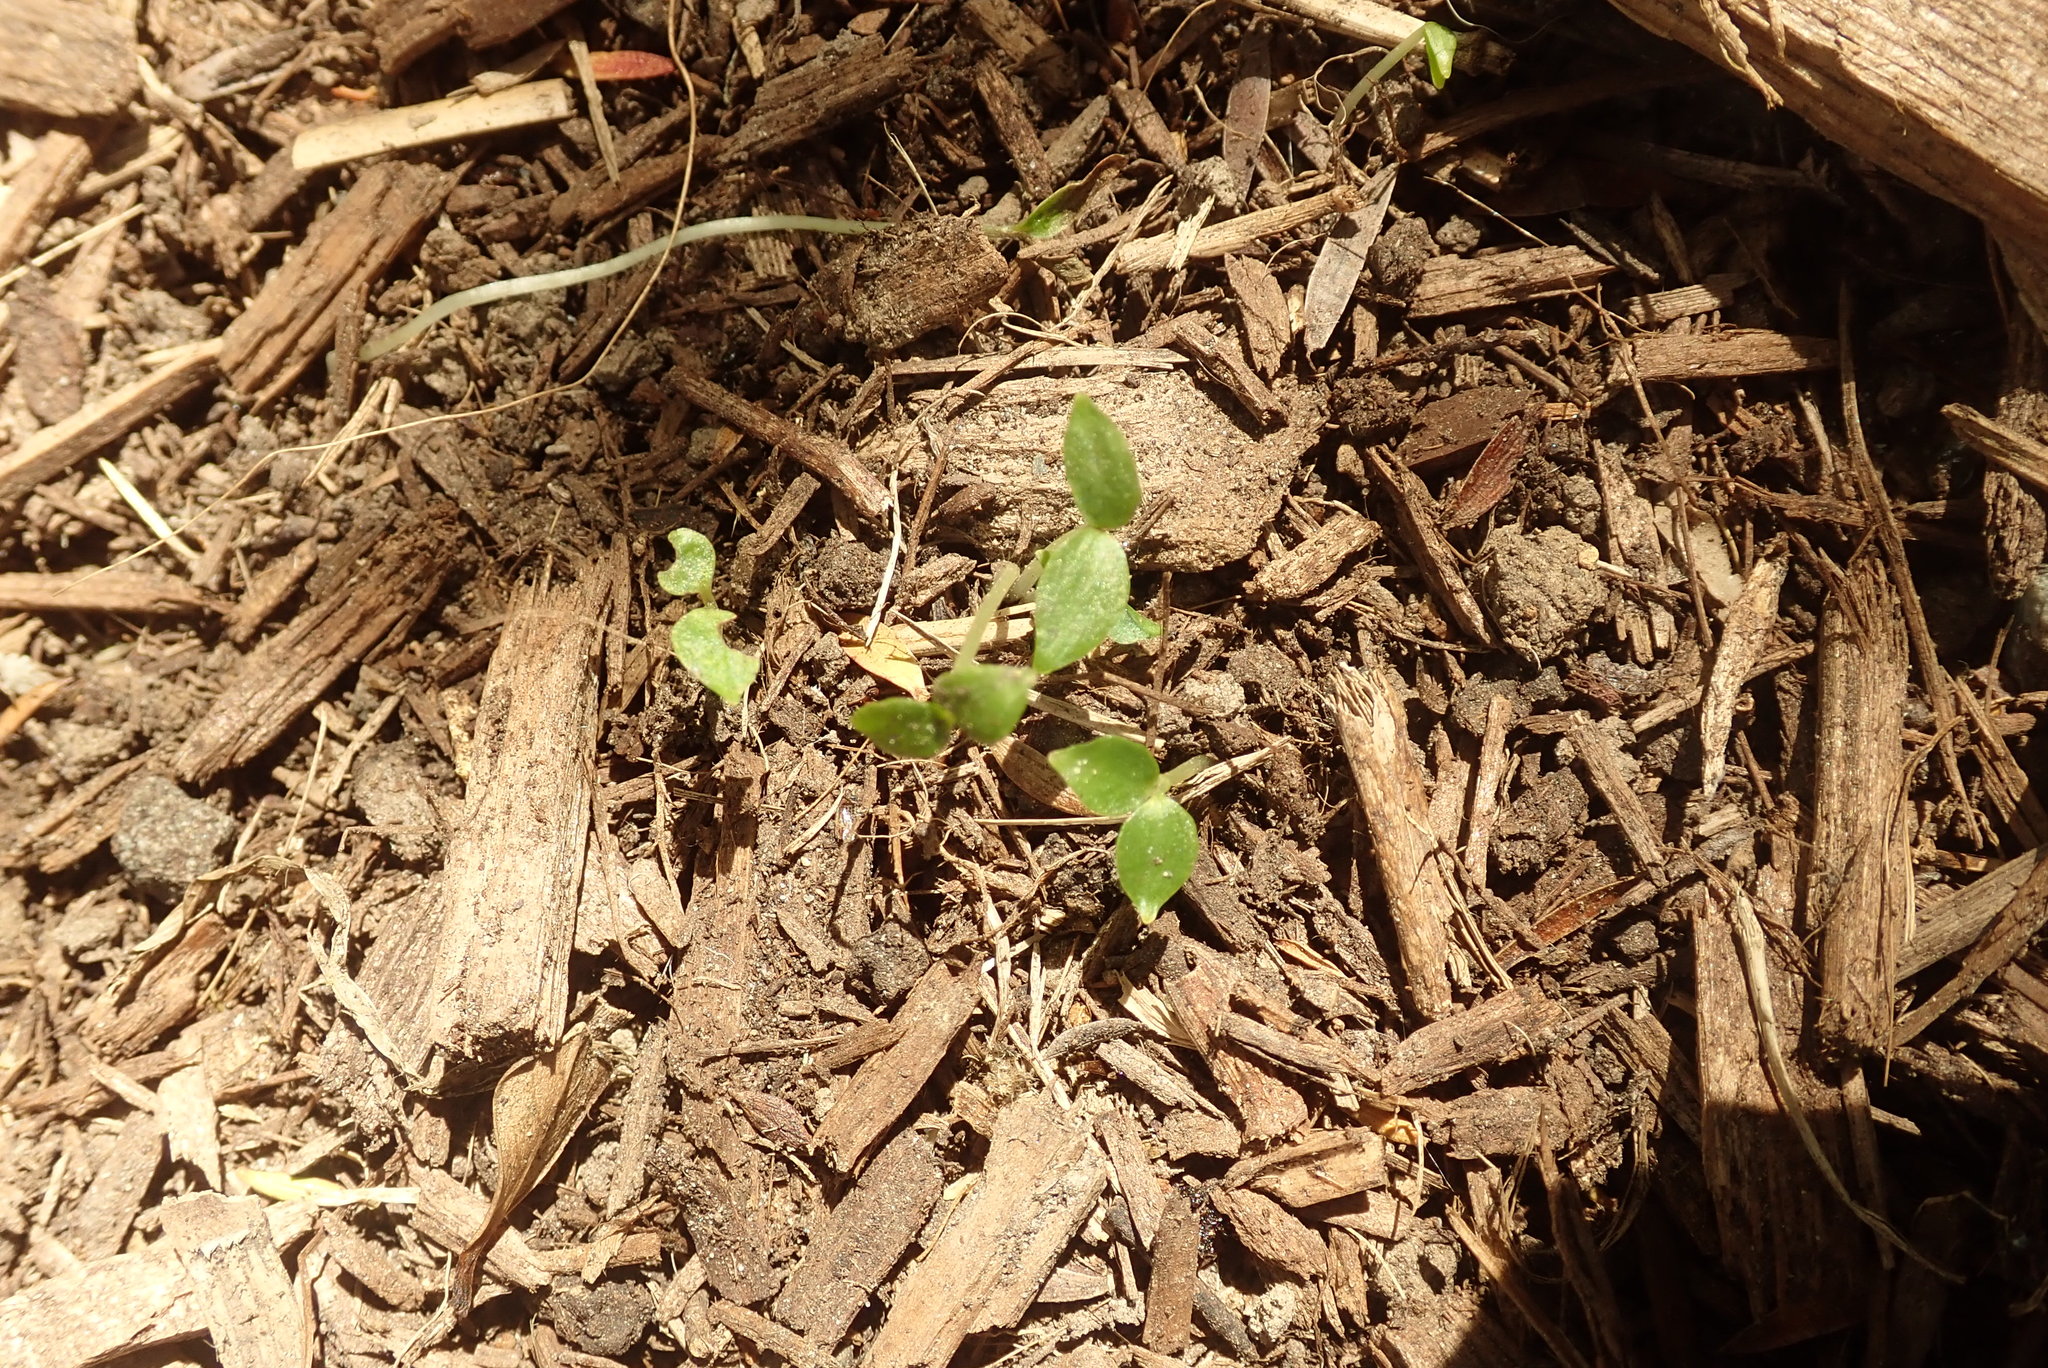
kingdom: Plantae
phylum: Tracheophyta
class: Magnoliopsida
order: Piperales
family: Piperaceae
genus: Macropiper
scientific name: Macropiper excelsum
